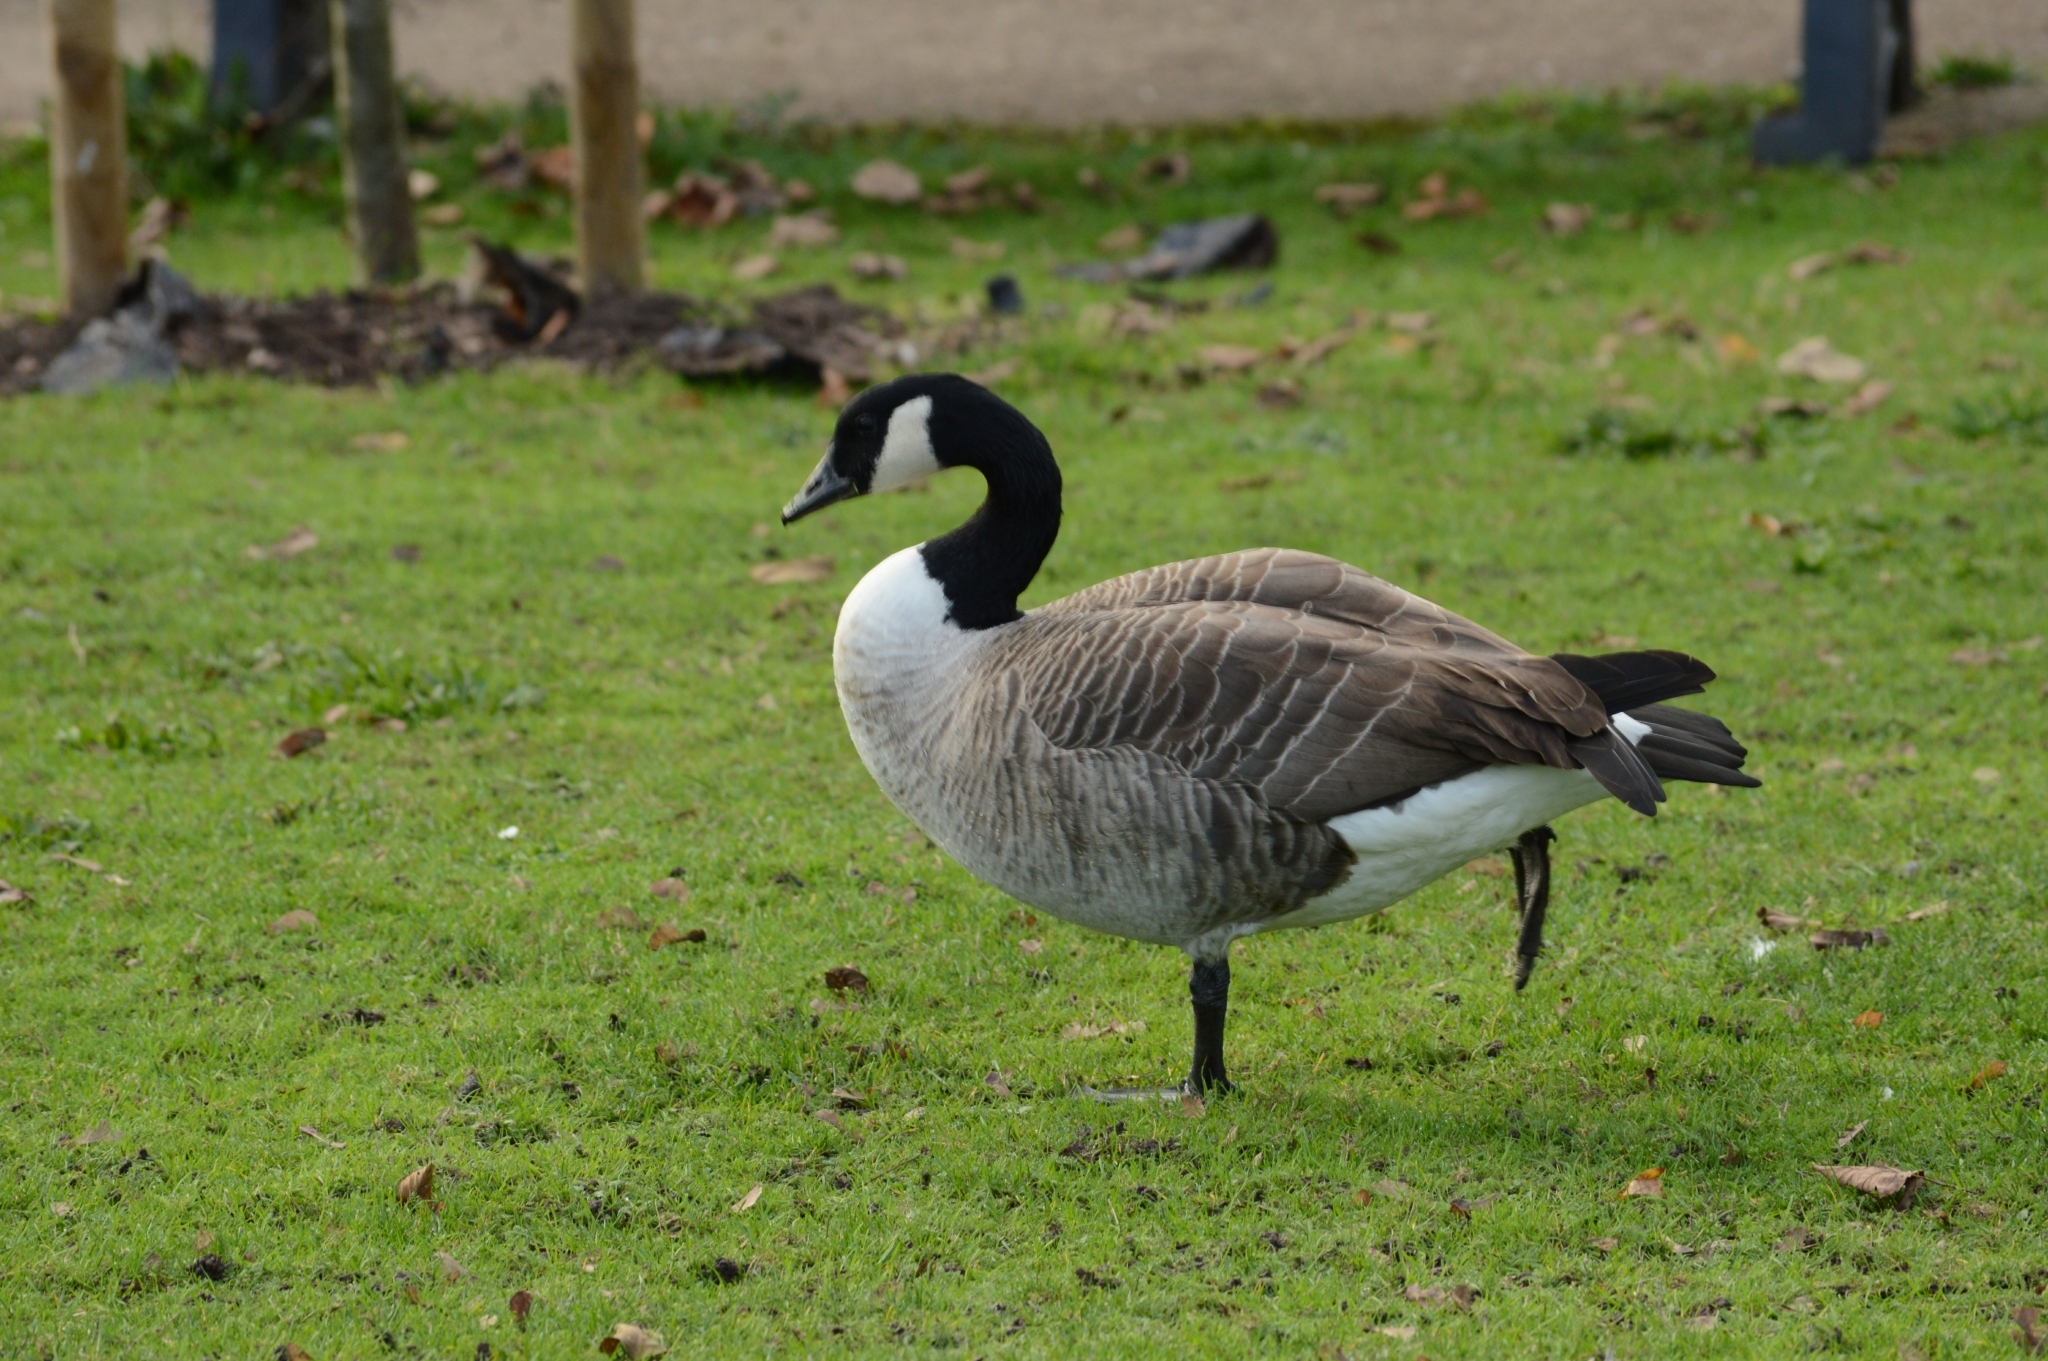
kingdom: Animalia
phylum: Chordata
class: Aves
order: Anseriformes
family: Anatidae
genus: Branta
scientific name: Branta canadensis
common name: Canada goose
